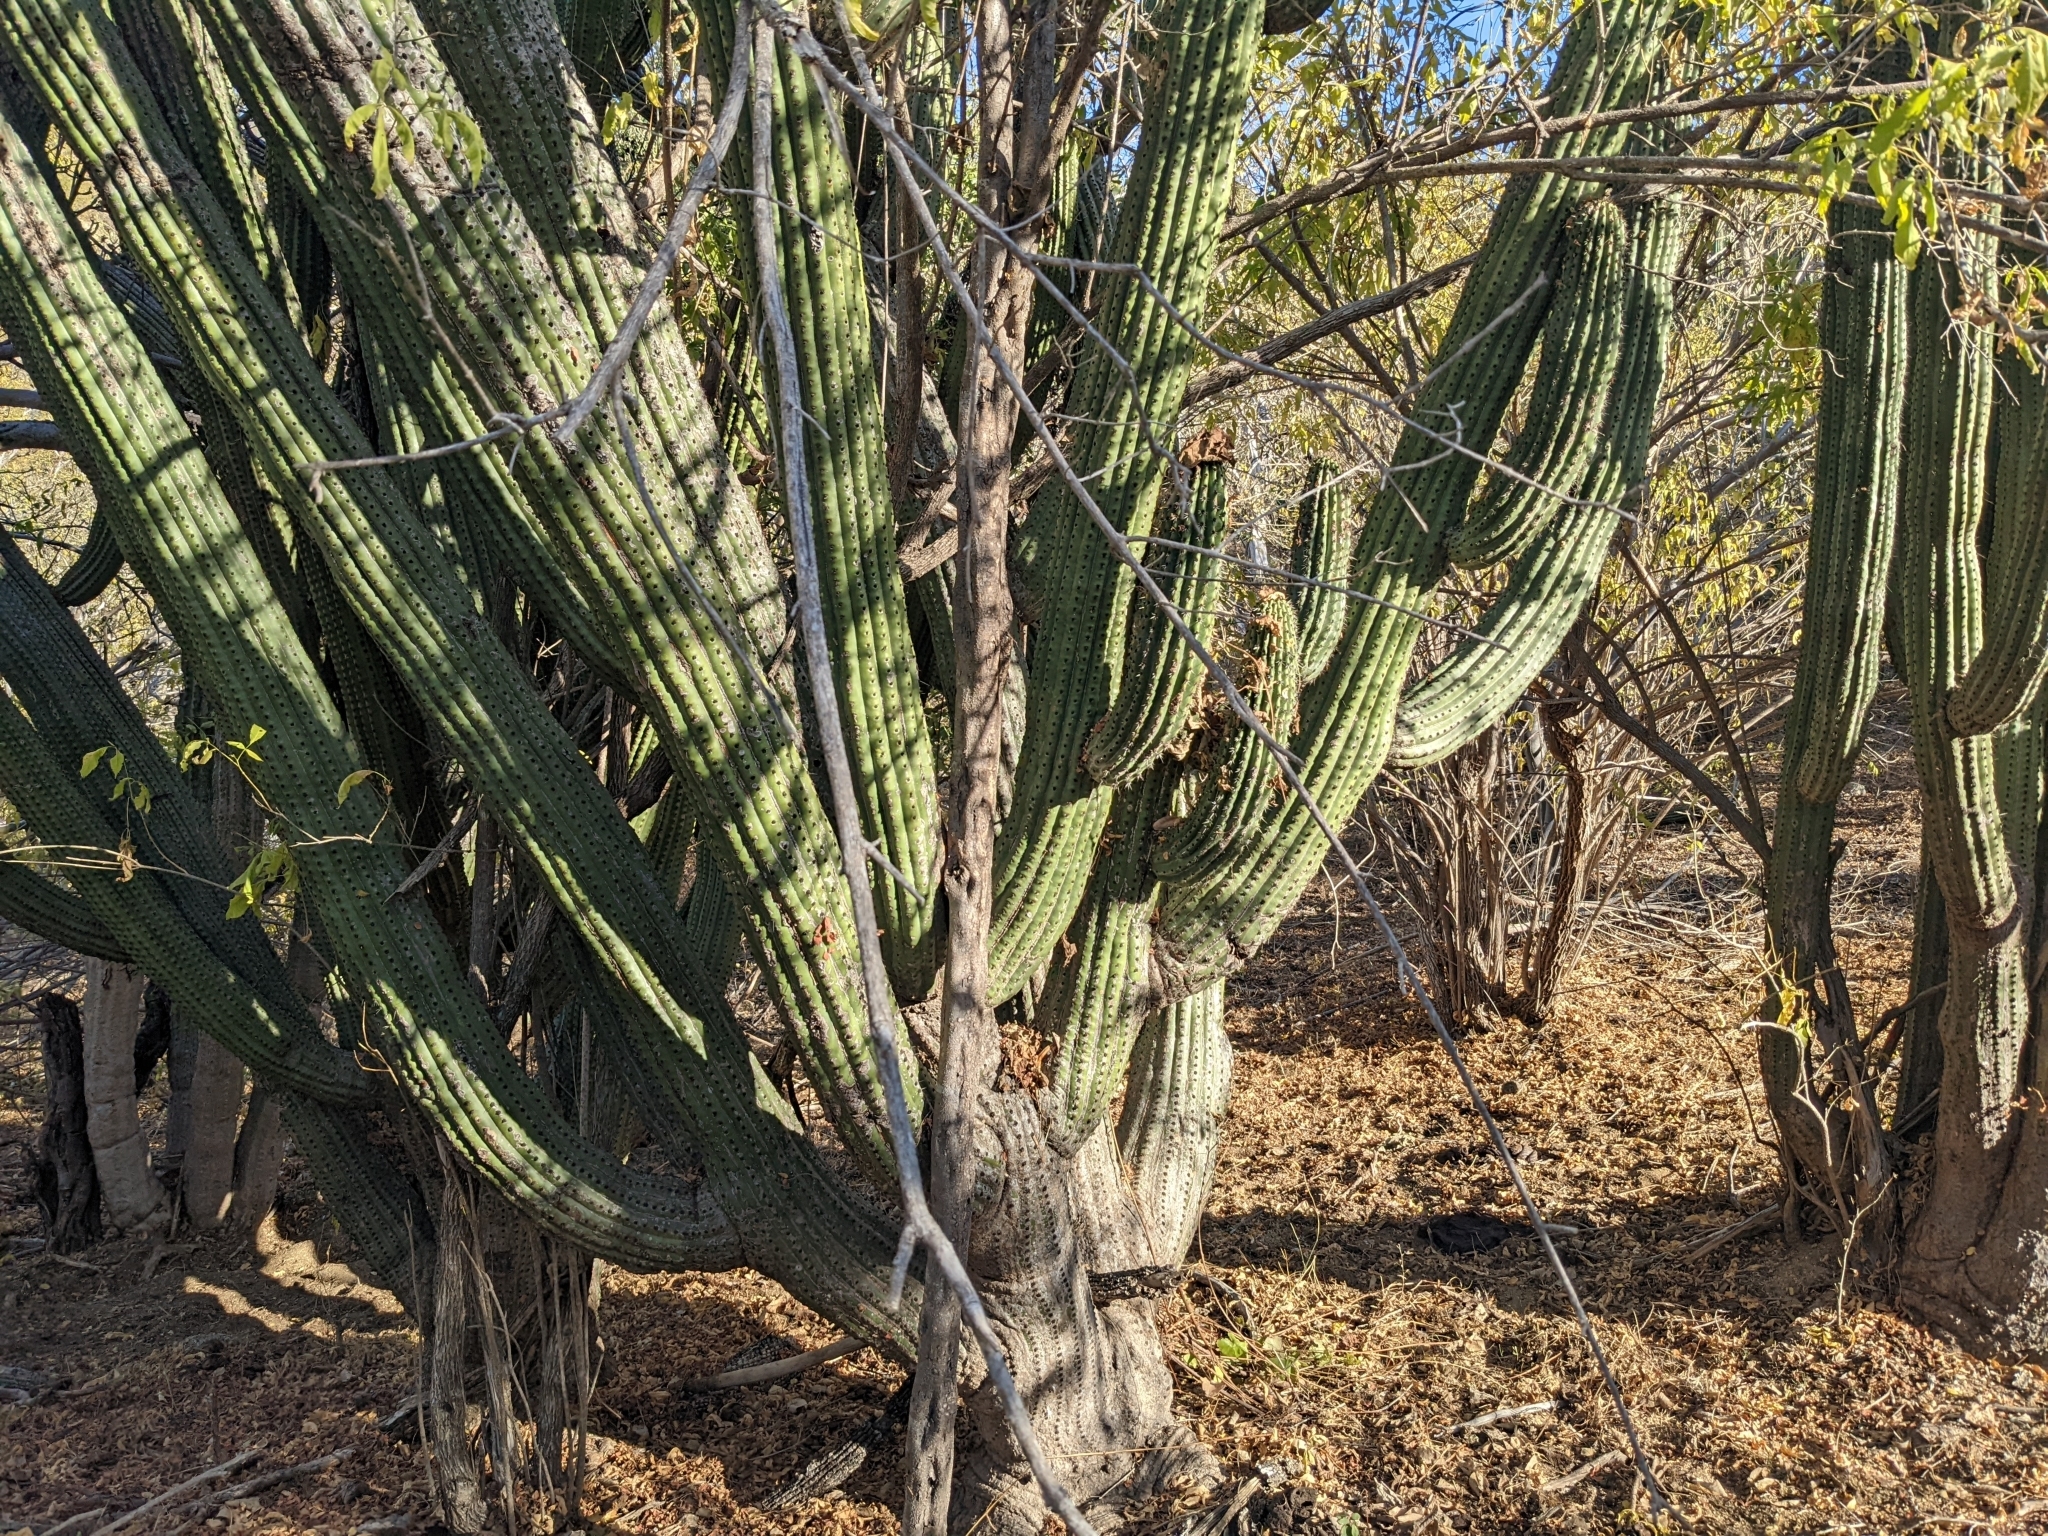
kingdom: Plantae
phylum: Tracheophyta
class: Magnoliopsida
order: Caryophyllales
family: Cactaceae
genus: Stenocereus
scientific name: Stenocereus thurberi
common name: Organ pipe cactus
